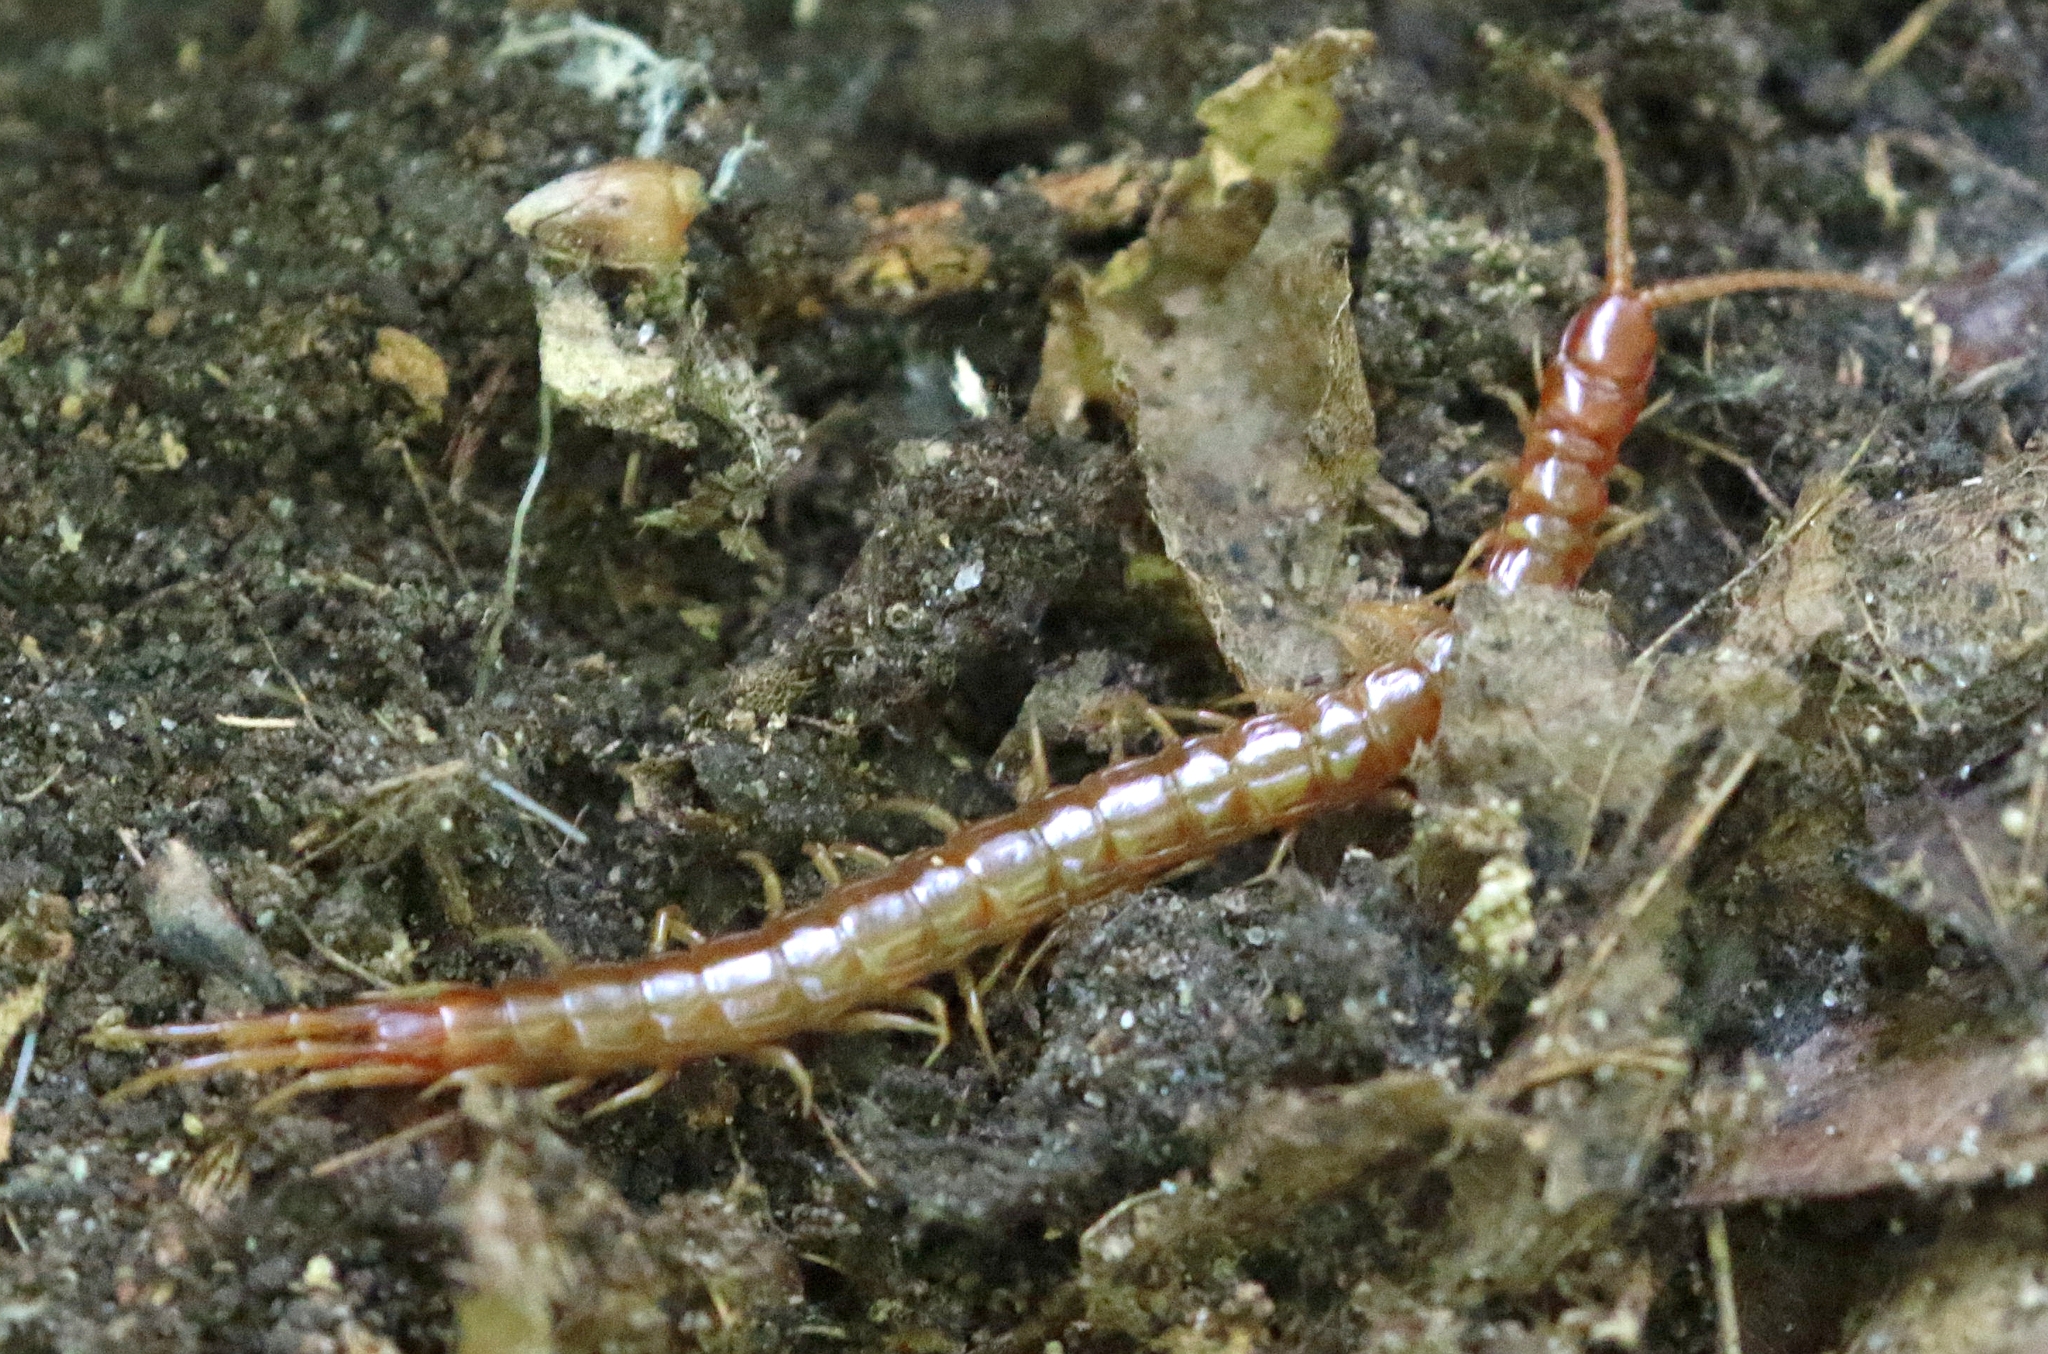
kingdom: Animalia
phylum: Arthropoda
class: Chilopoda
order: Scolopendromorpha
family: Scolopocryptopidae
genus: Scolopocryptops
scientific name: Scolopocryptops sexspinosus
